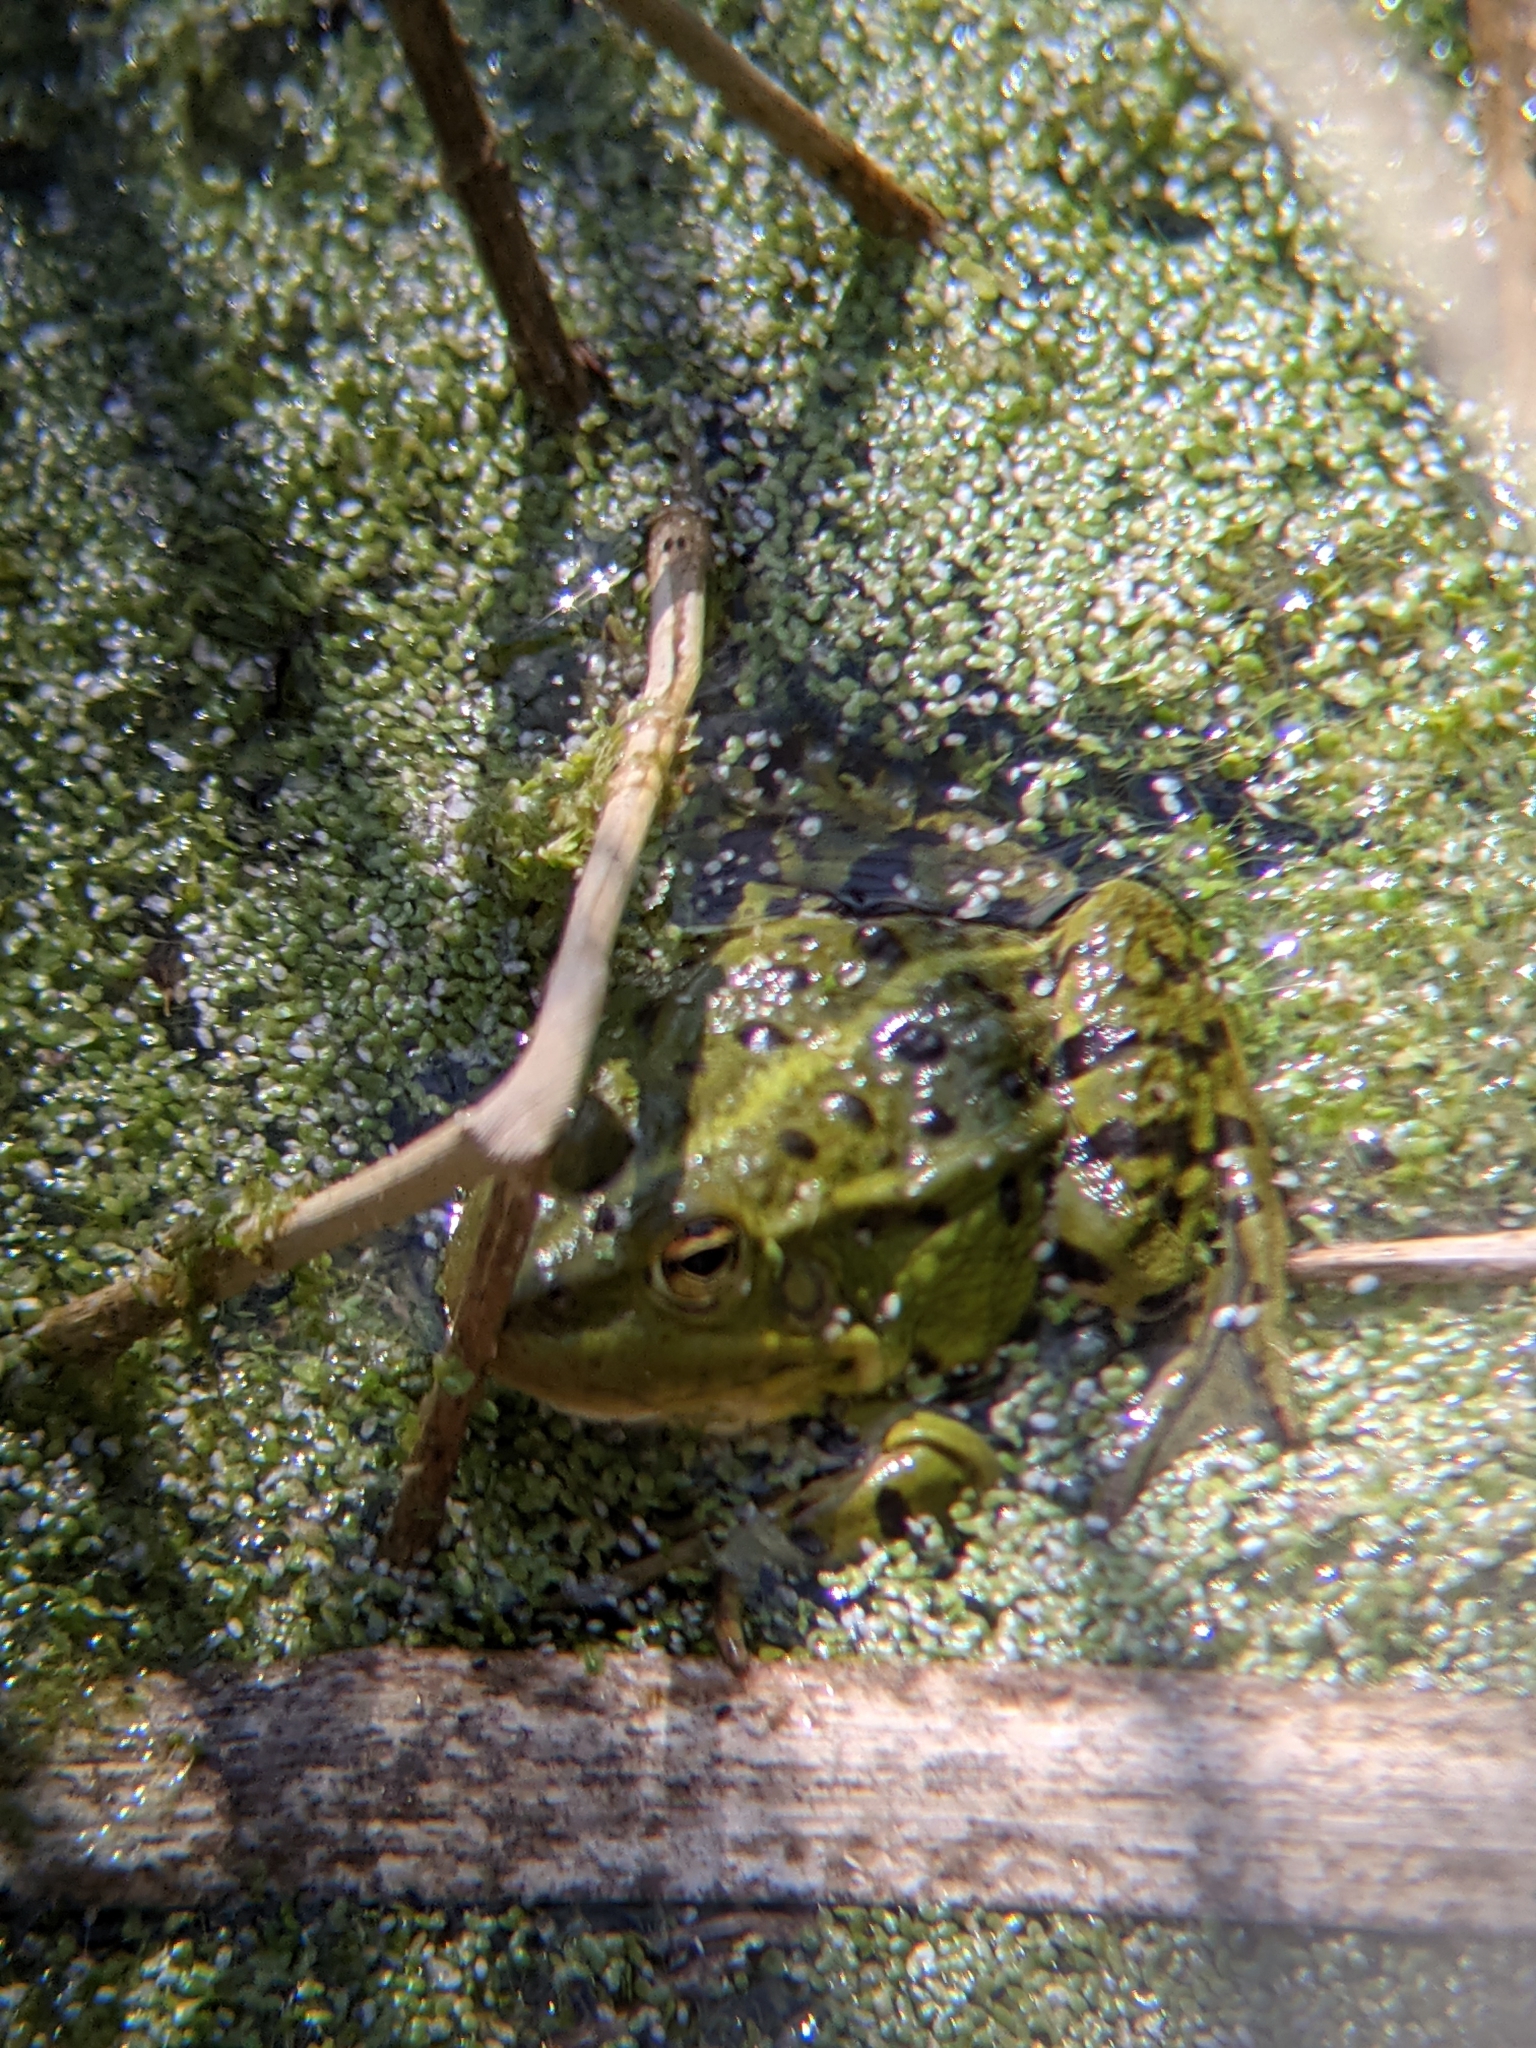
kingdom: Animalia
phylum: Chordata
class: Amphibia
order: Anura
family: Ranidae
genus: Pelophylax
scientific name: Pelophylax
